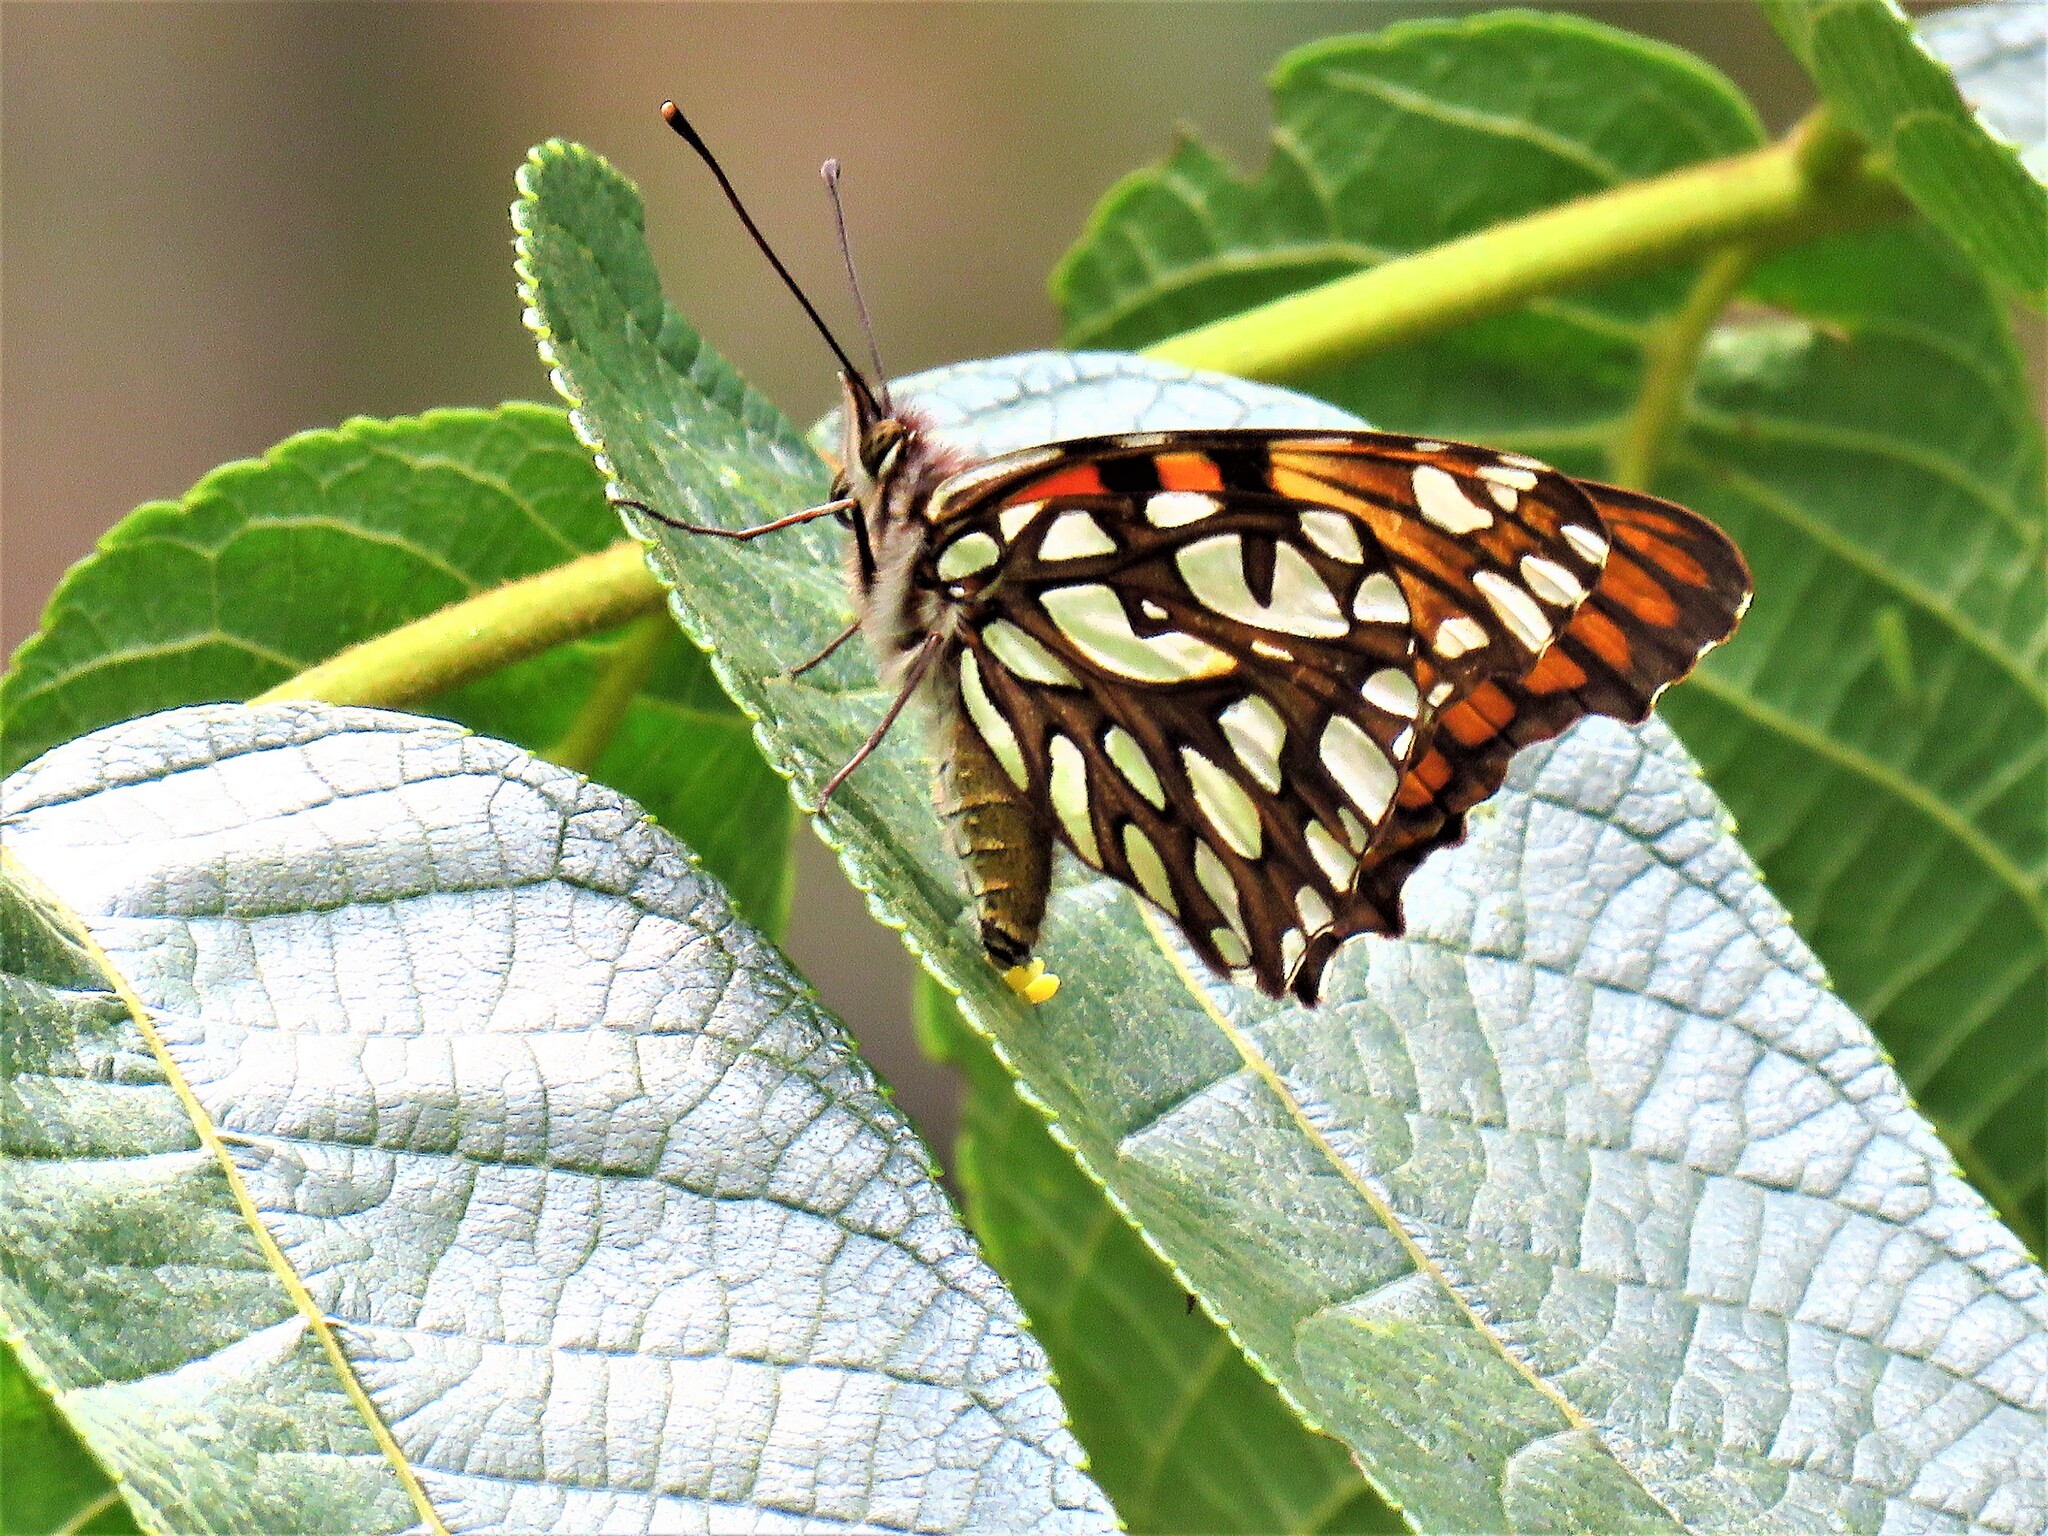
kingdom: Animalia
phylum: Arthropoda
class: Insecta
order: Lepidoptera
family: Nymphalidae
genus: Dione
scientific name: Dione glycera
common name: Andean silverspot
